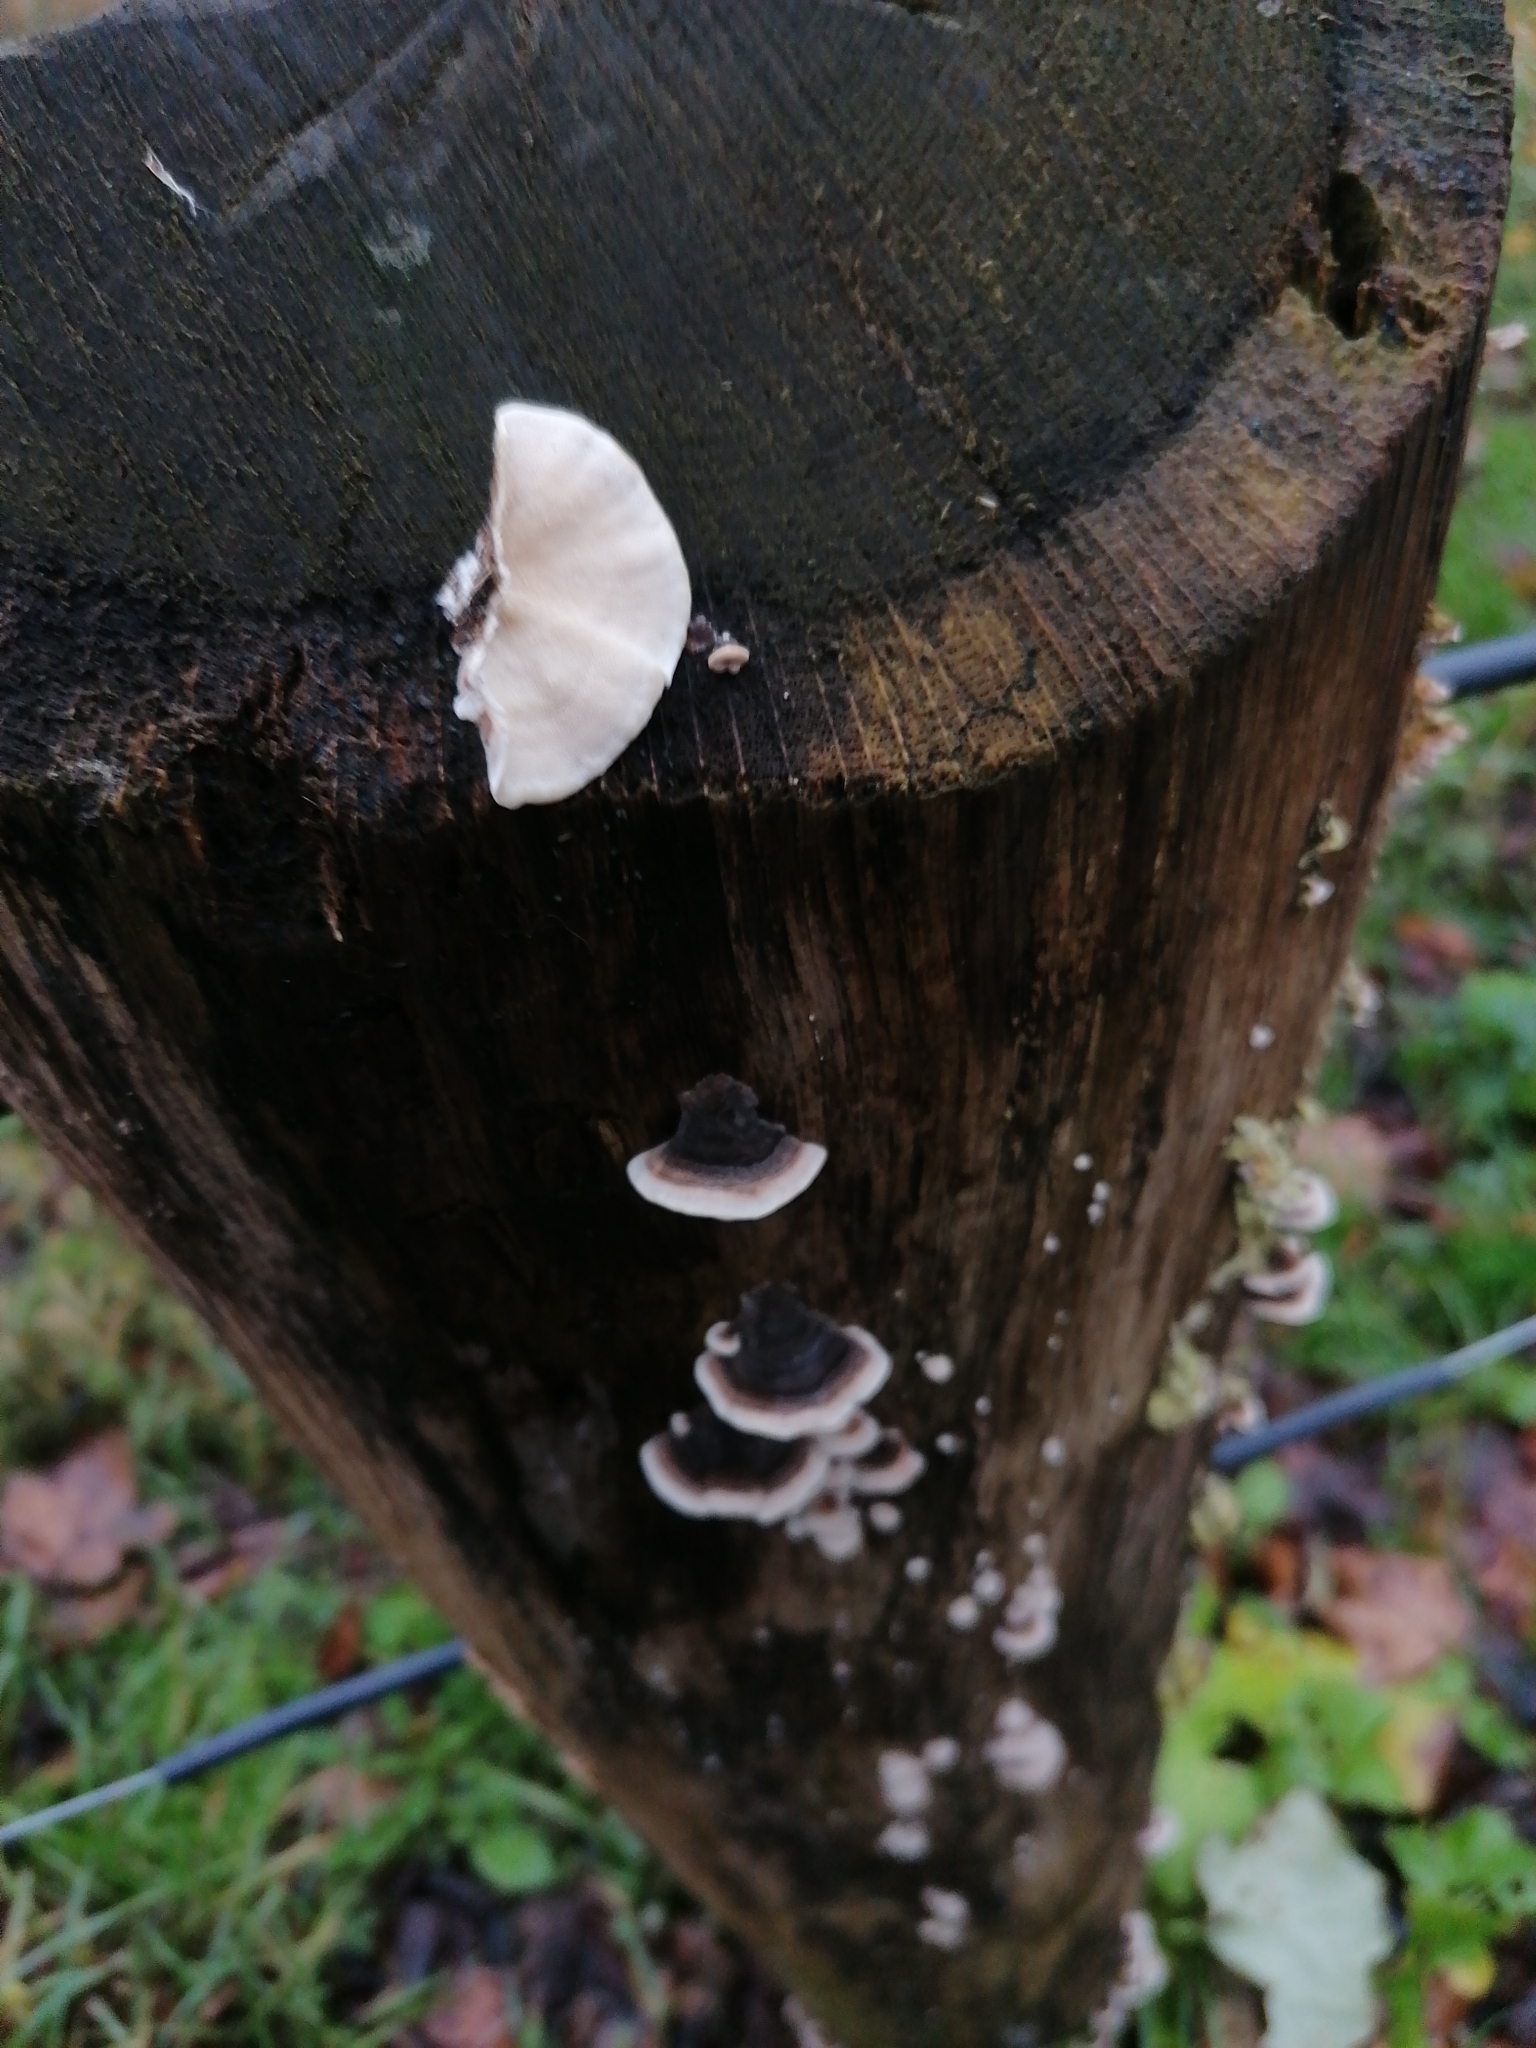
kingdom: Fungi
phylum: Basidiomycota
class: Agaricomycetes
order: Polyporales
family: Polyporaceae
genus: Trametes
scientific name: Trametes versicolor
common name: Turkeytail
